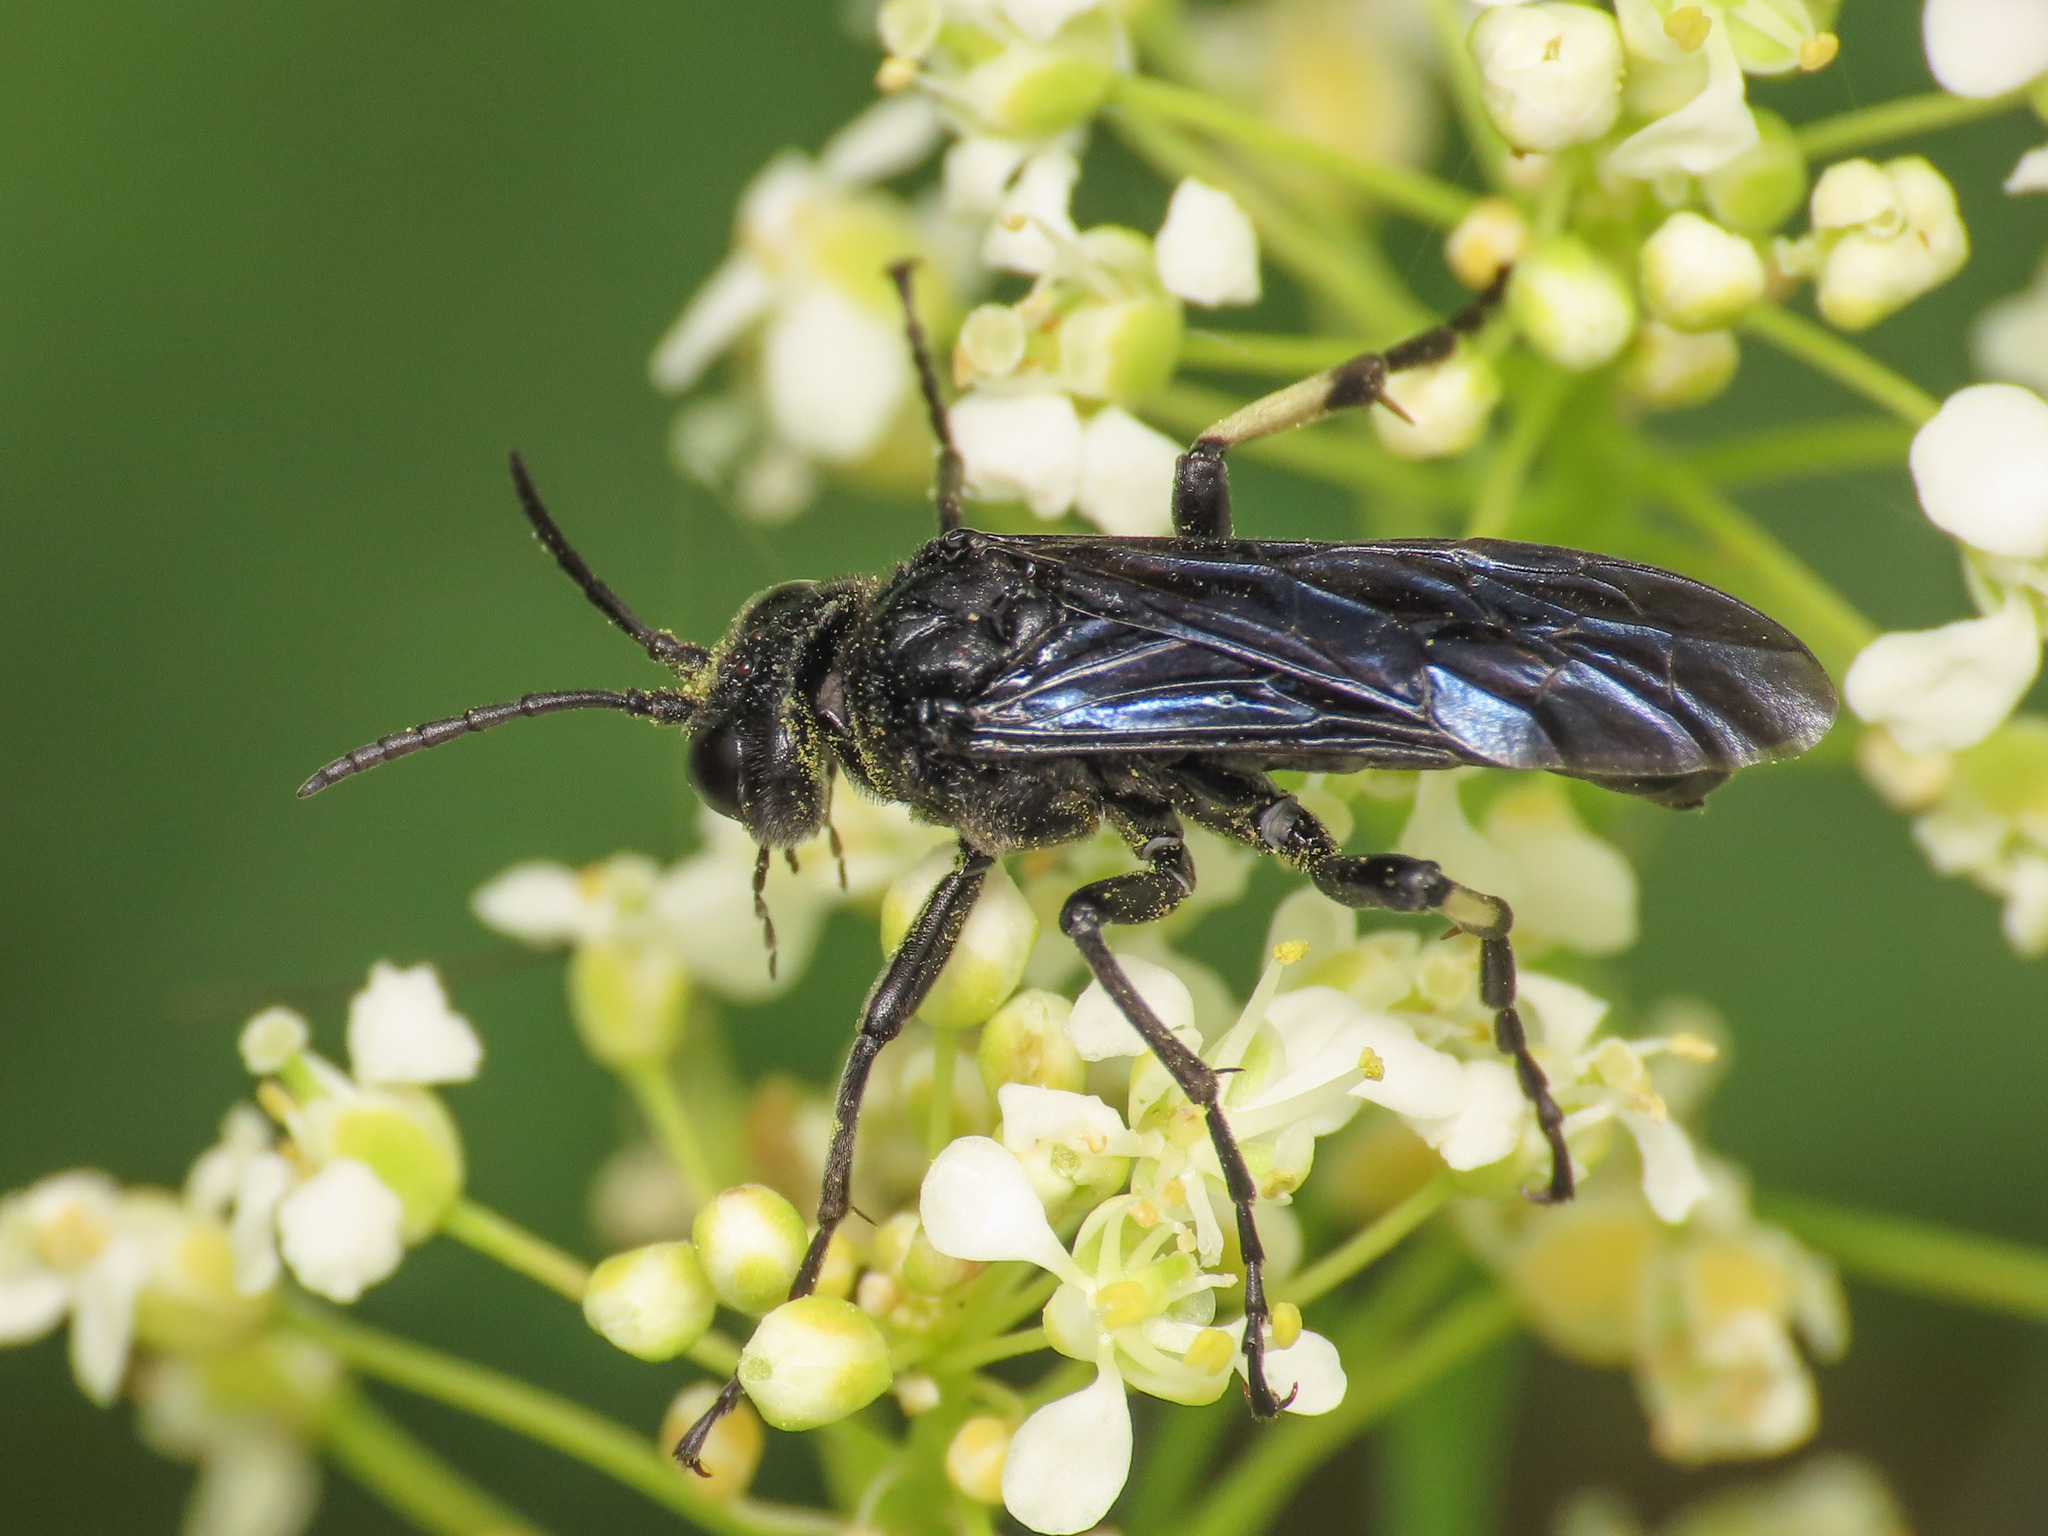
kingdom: Animalia
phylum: Arthropoda
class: Insecta
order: Hymenoptera
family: Tenthredinidae
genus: Tenthredo
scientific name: Tenthredo bifasciata
